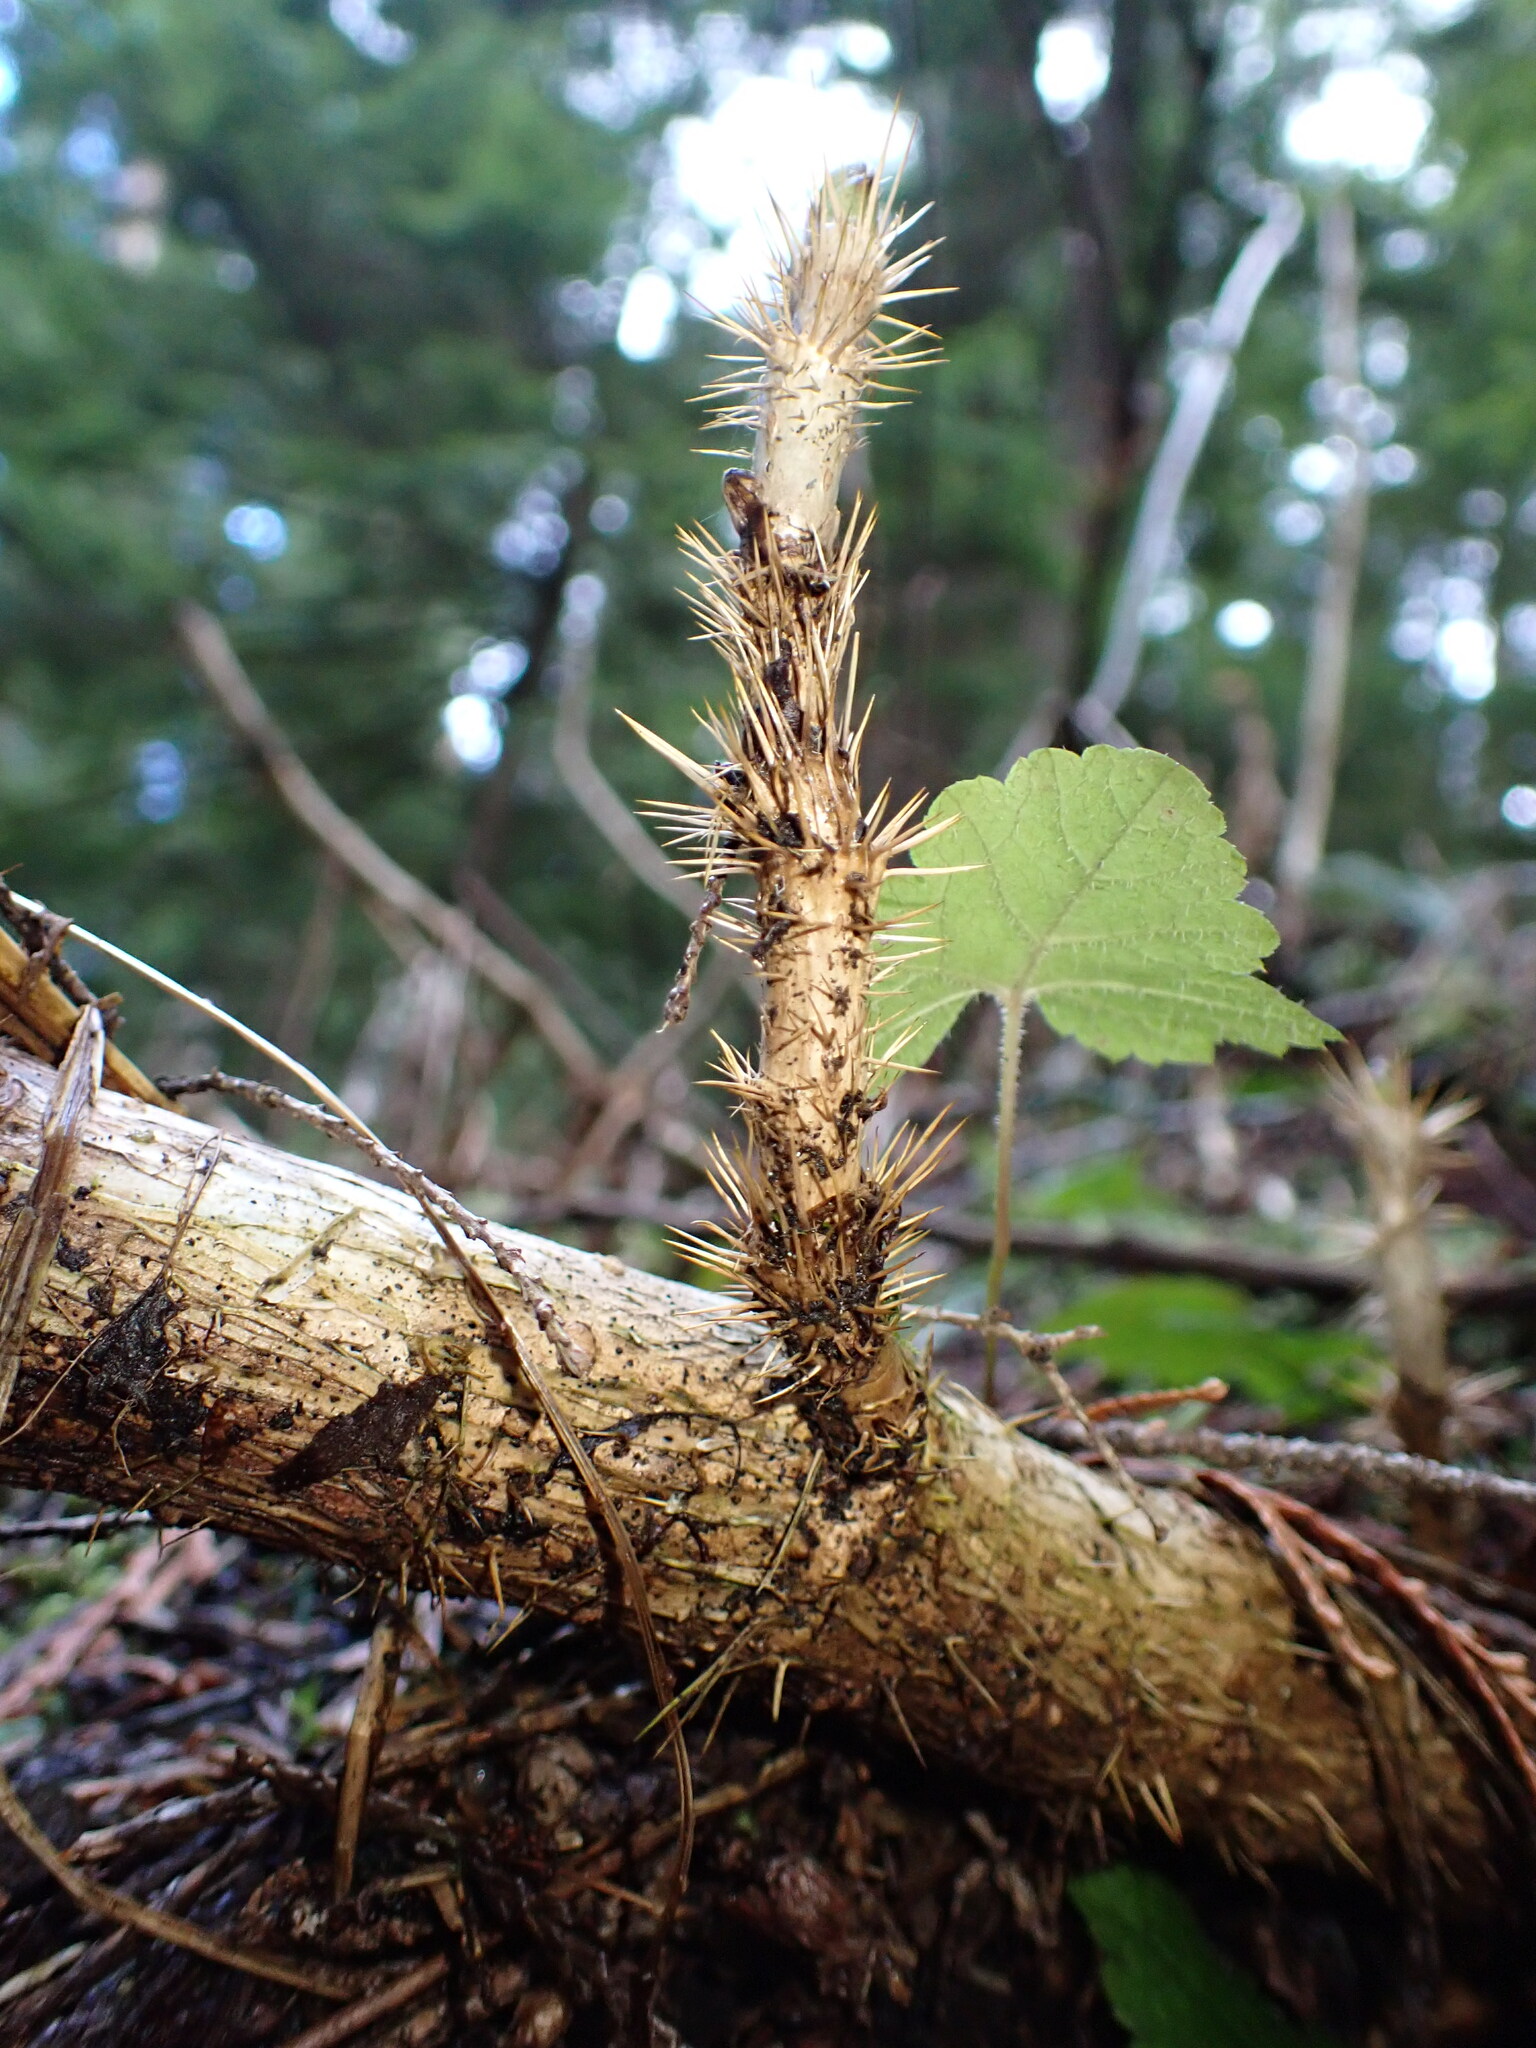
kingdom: Plantae
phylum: Tracheophyta
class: Magnoliopsida
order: Apiales
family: Araliaceae
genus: Oplopanax
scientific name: Oplopanax horridus
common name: Devil's walking-stick
